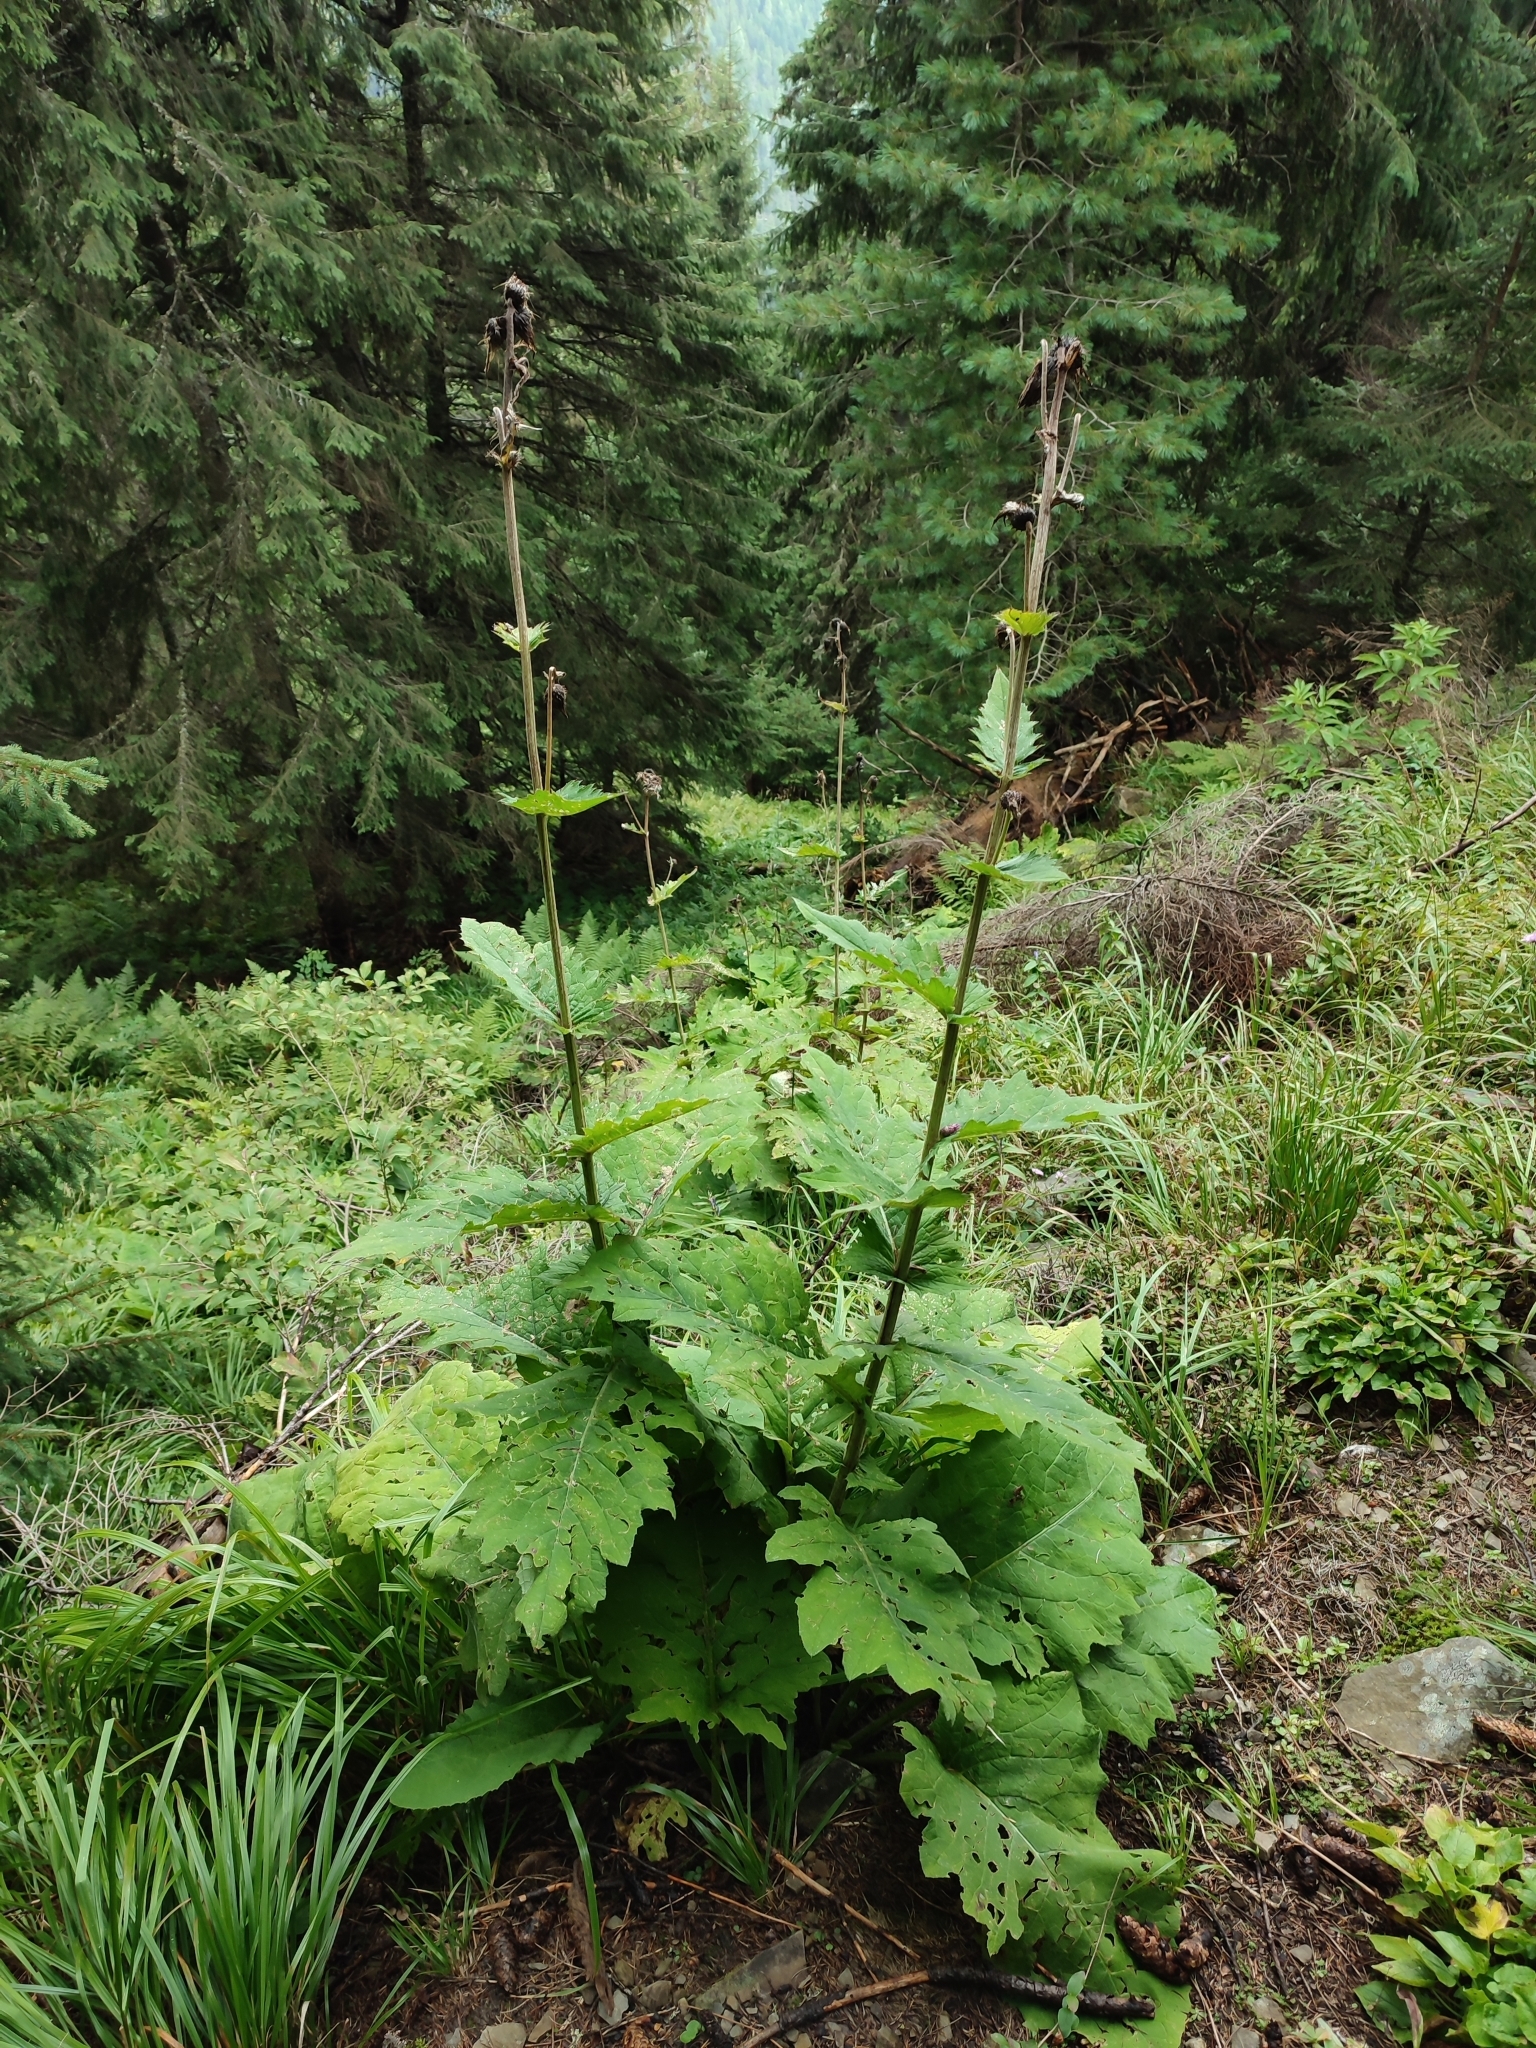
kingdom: Plantae
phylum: Tracheophyta
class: Magnoliopsida
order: Asterales
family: Asteraceae
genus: Cirsium
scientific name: Cirsium waldsteinii
